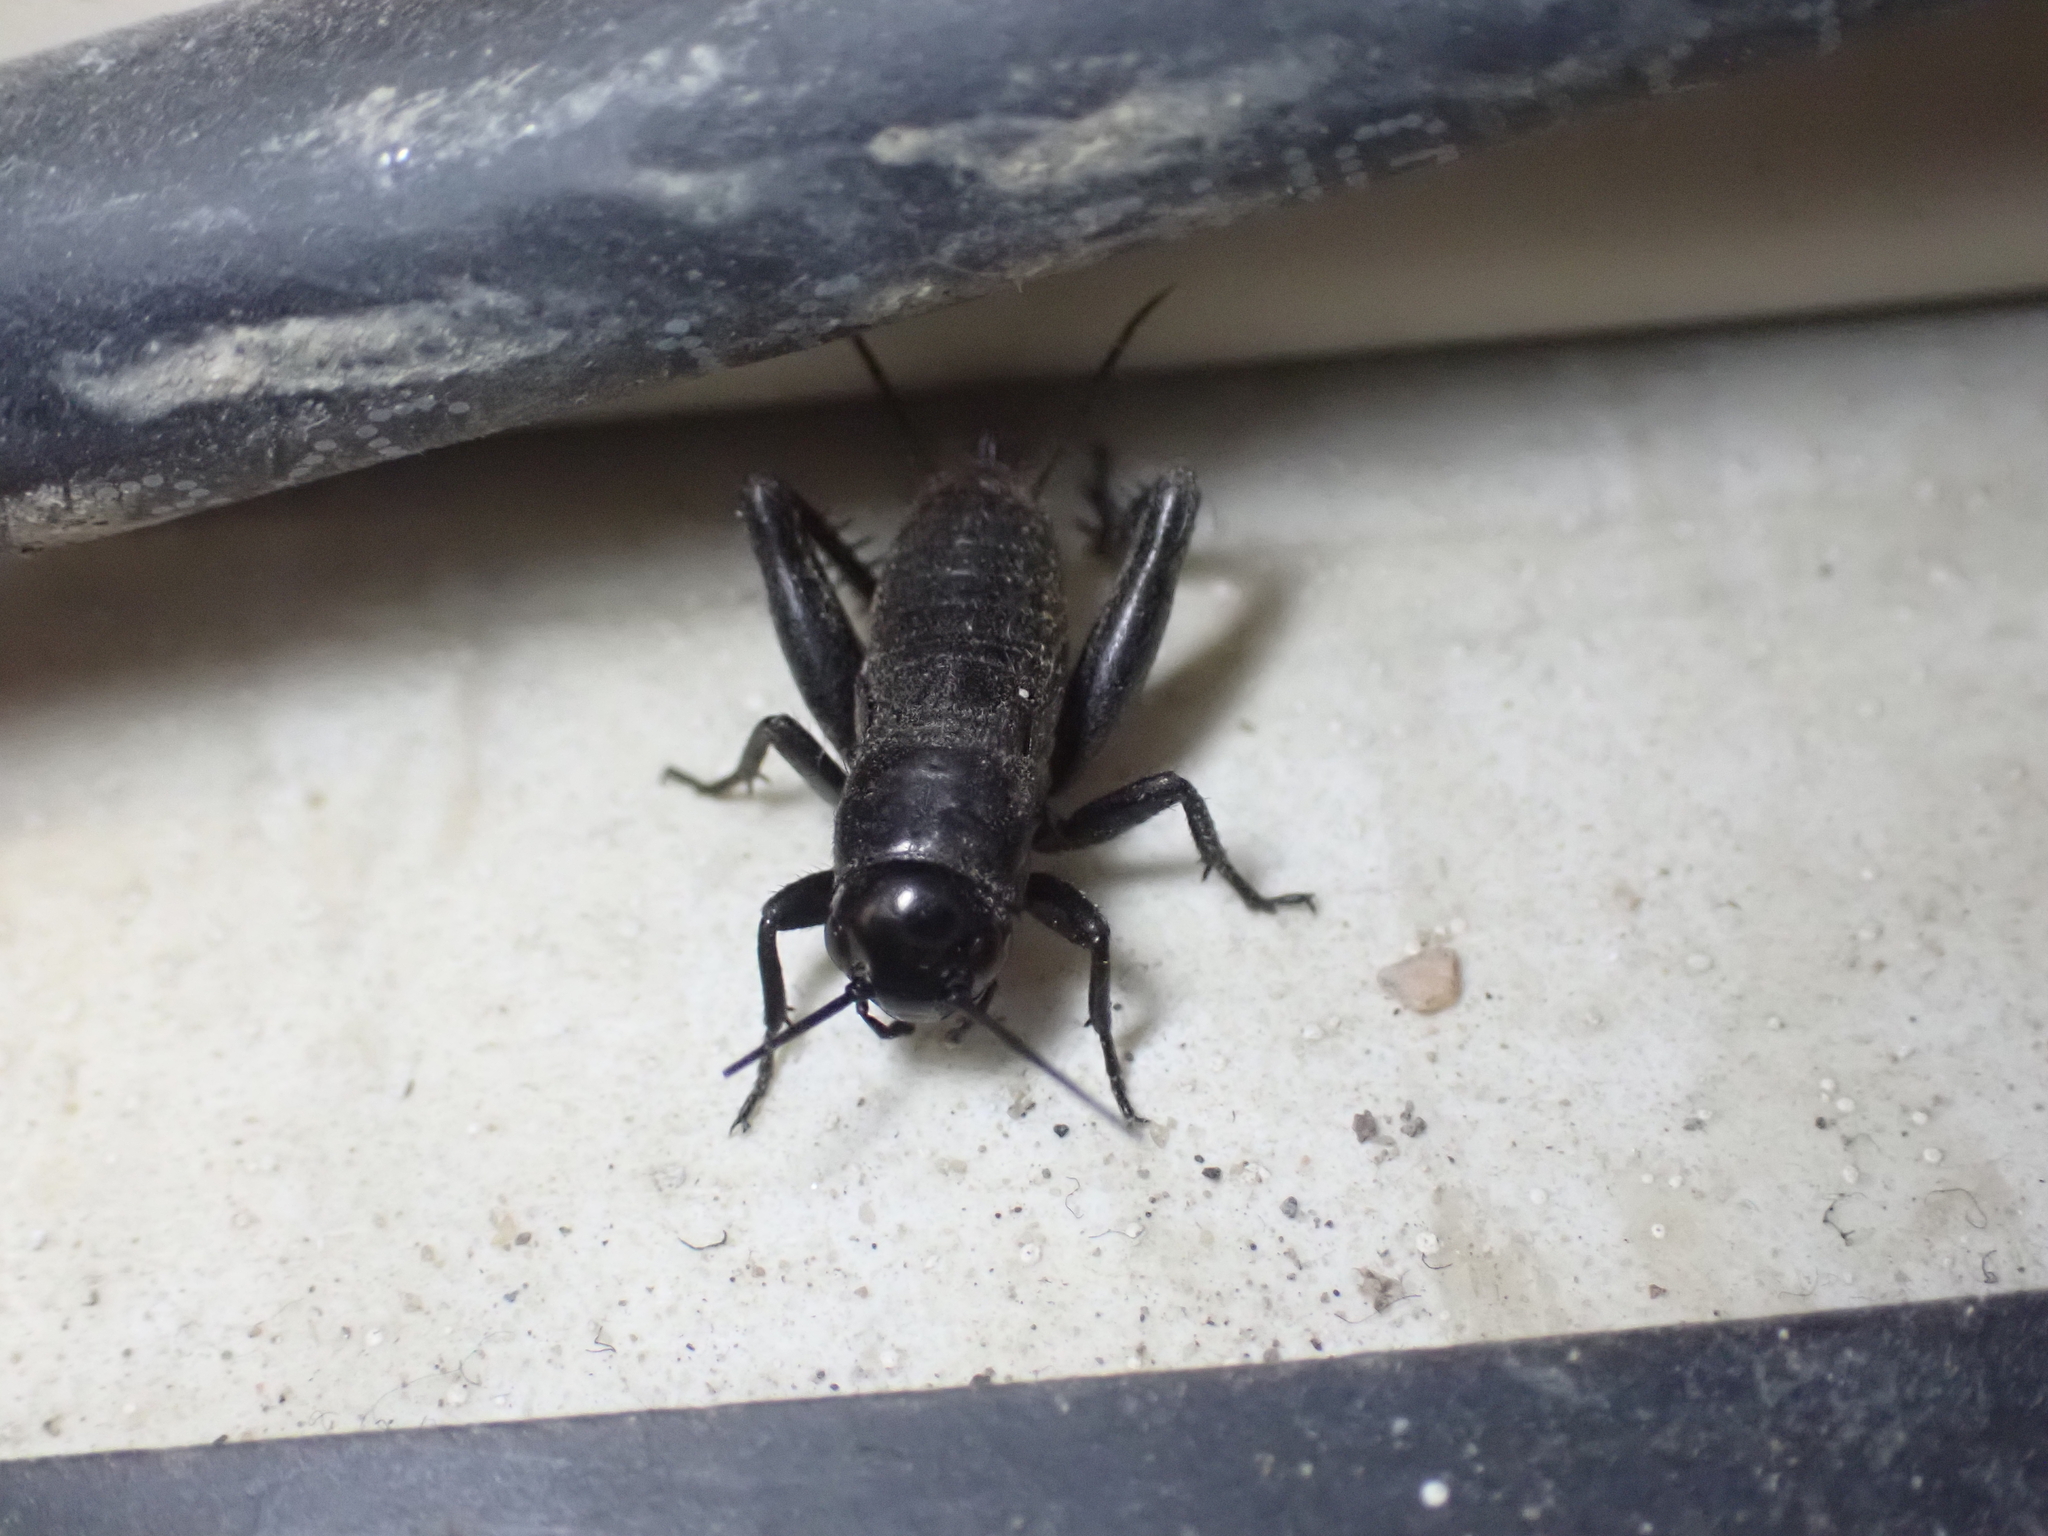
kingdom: Animalia
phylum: Arthropoda
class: Insecta
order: Orthoptera
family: Gryllidae
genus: Gryllus
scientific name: Gryllus veletis
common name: Spring field cricket
